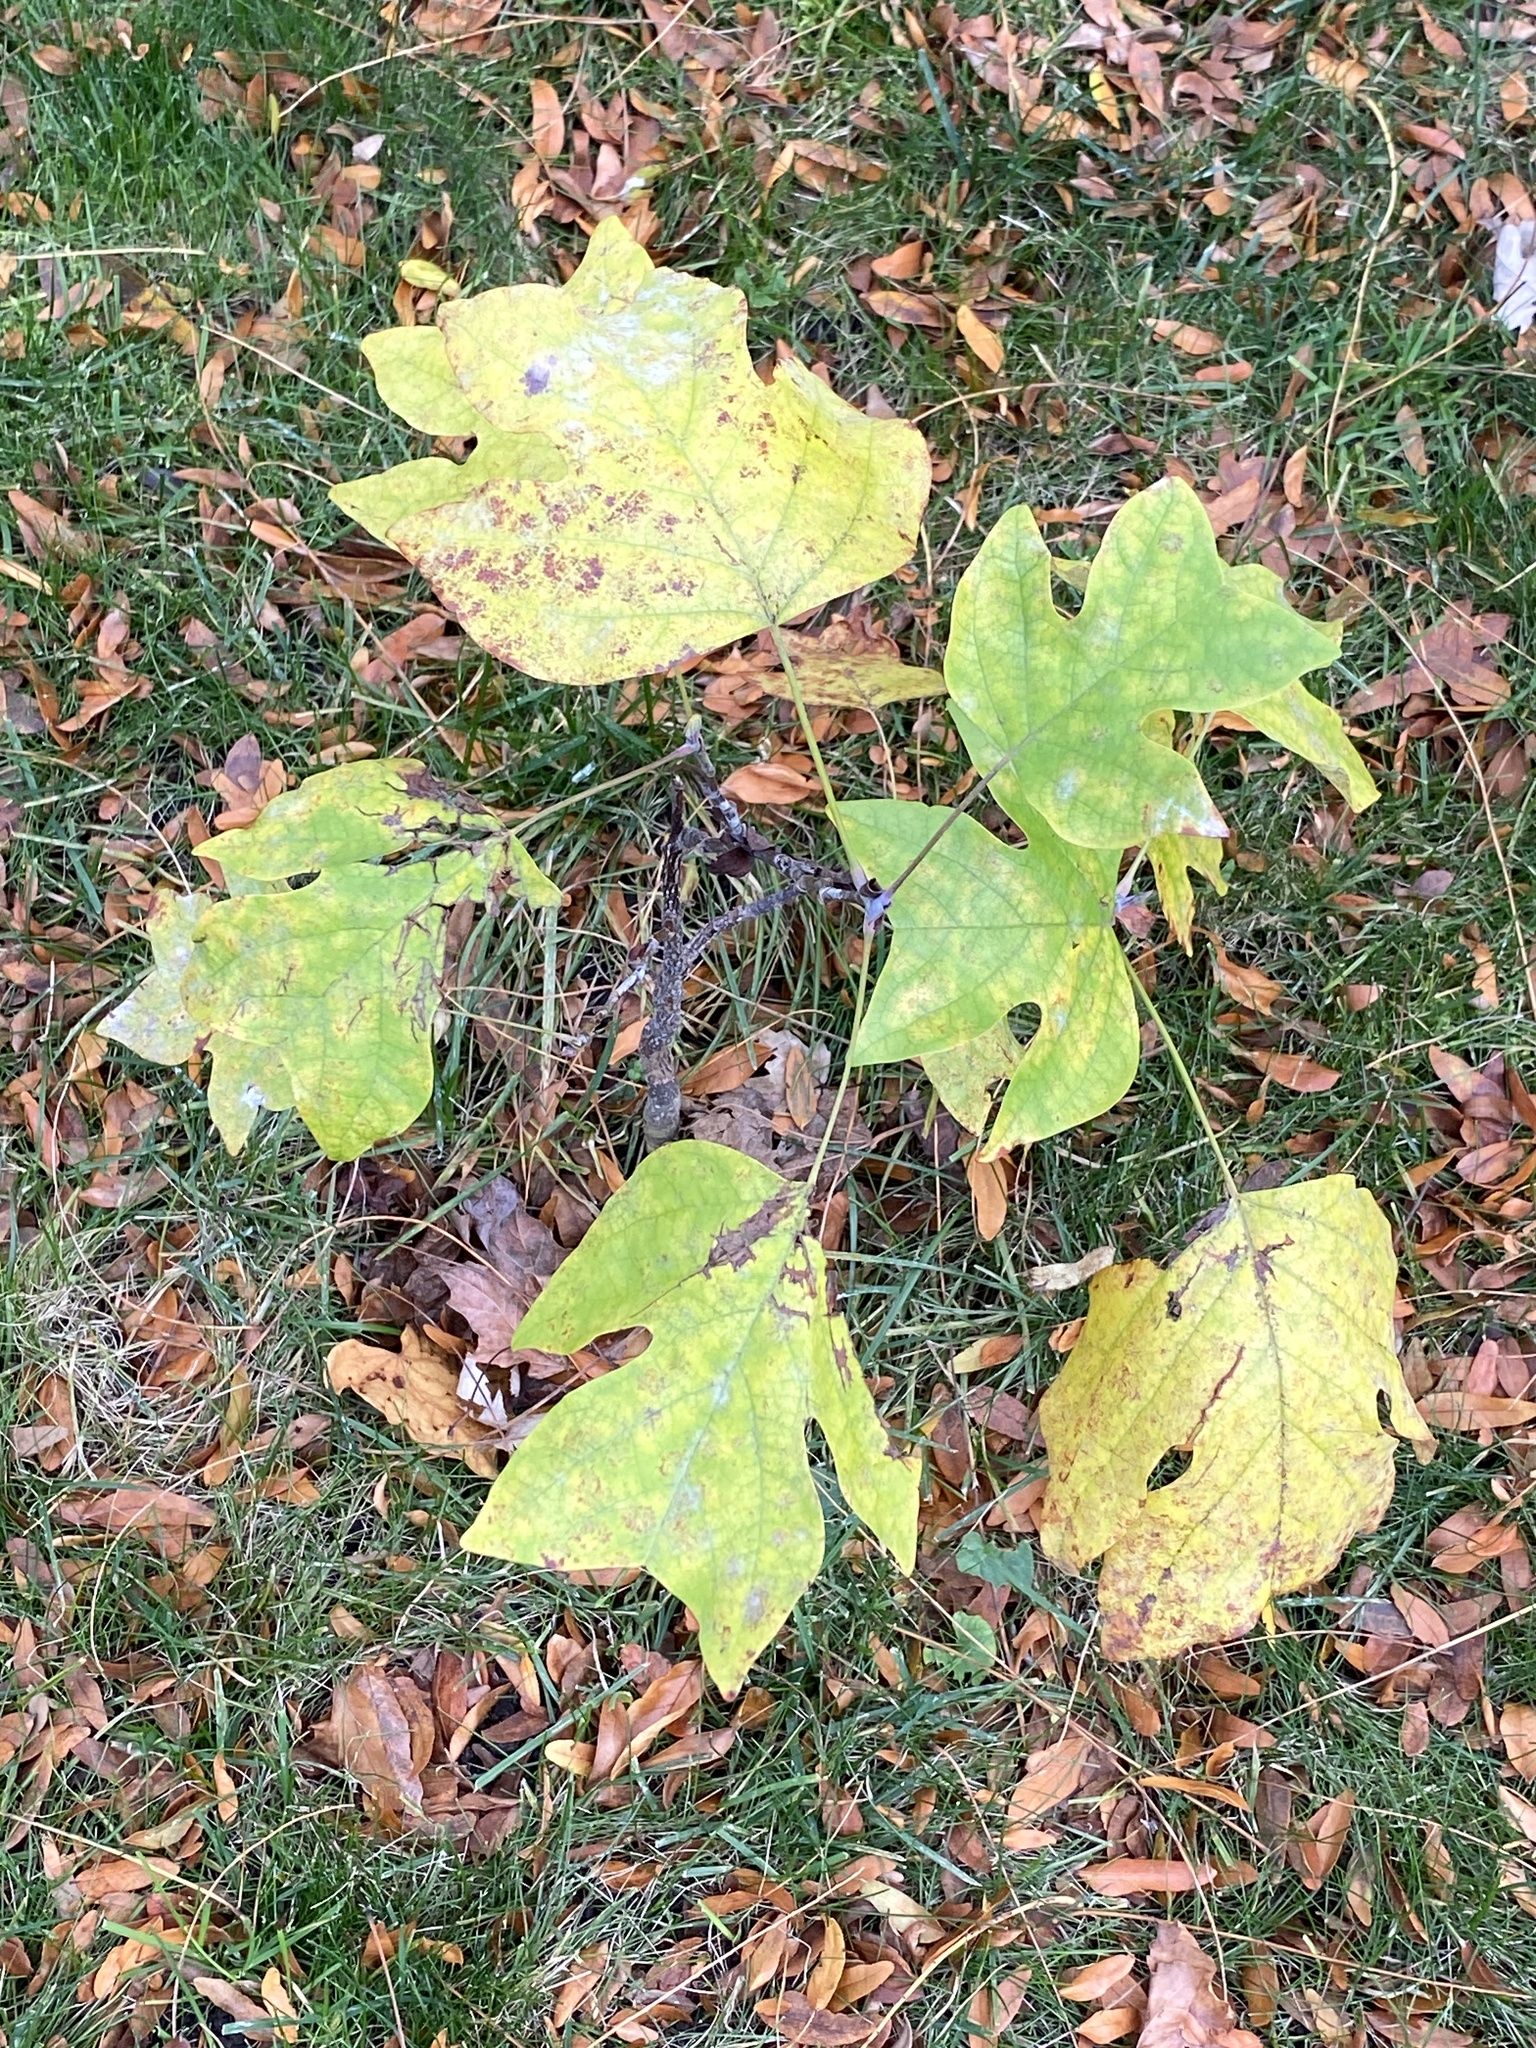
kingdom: Plantae
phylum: Tracheophyta
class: Magnoliopsida
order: Magnoliales
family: Magnoliaceae
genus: Liriodendron
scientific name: Liriodendron tulipifera
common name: Tulip tree
